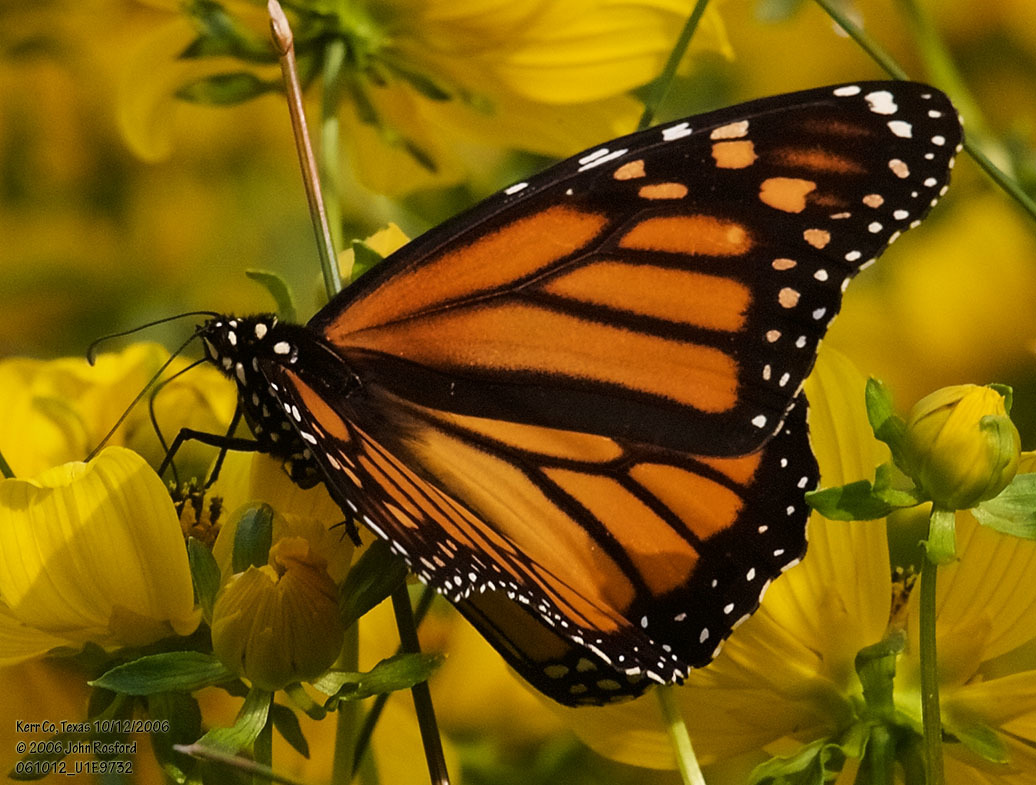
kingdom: Animalia
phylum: Arthropoda
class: Insecta
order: Lepidoptera
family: Nymphalidae
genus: Danaus
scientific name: Danaus plexippus
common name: Monarch
